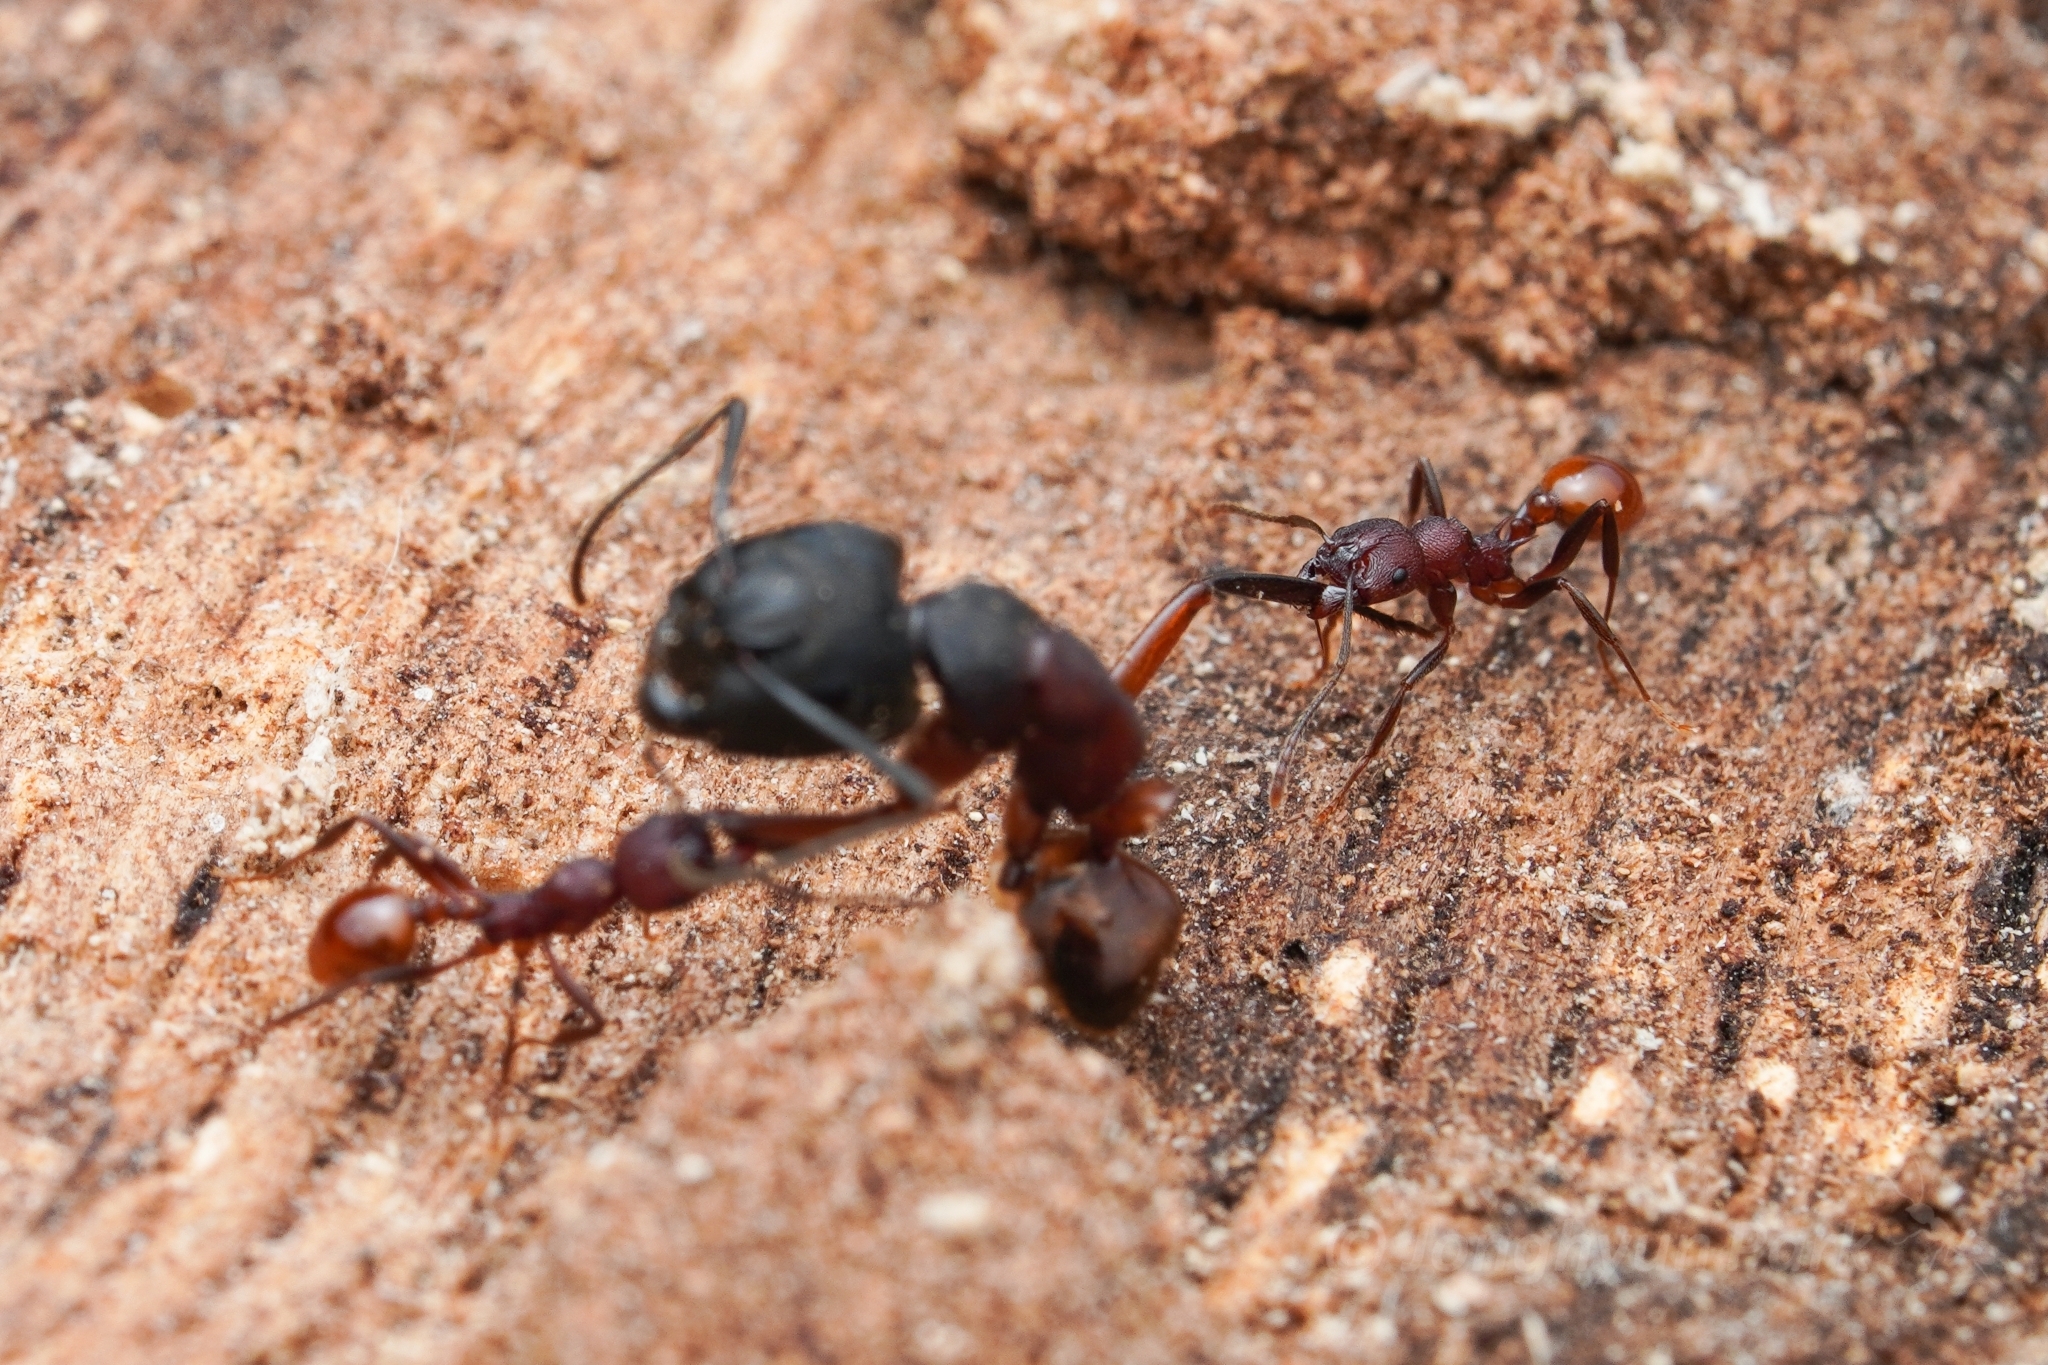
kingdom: Animalia
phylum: Arthropoda
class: Insecta
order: Hymenoptera
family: Formicidae
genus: Camponotus
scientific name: Camponotus chromaiodes
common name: Red carpenter ant
